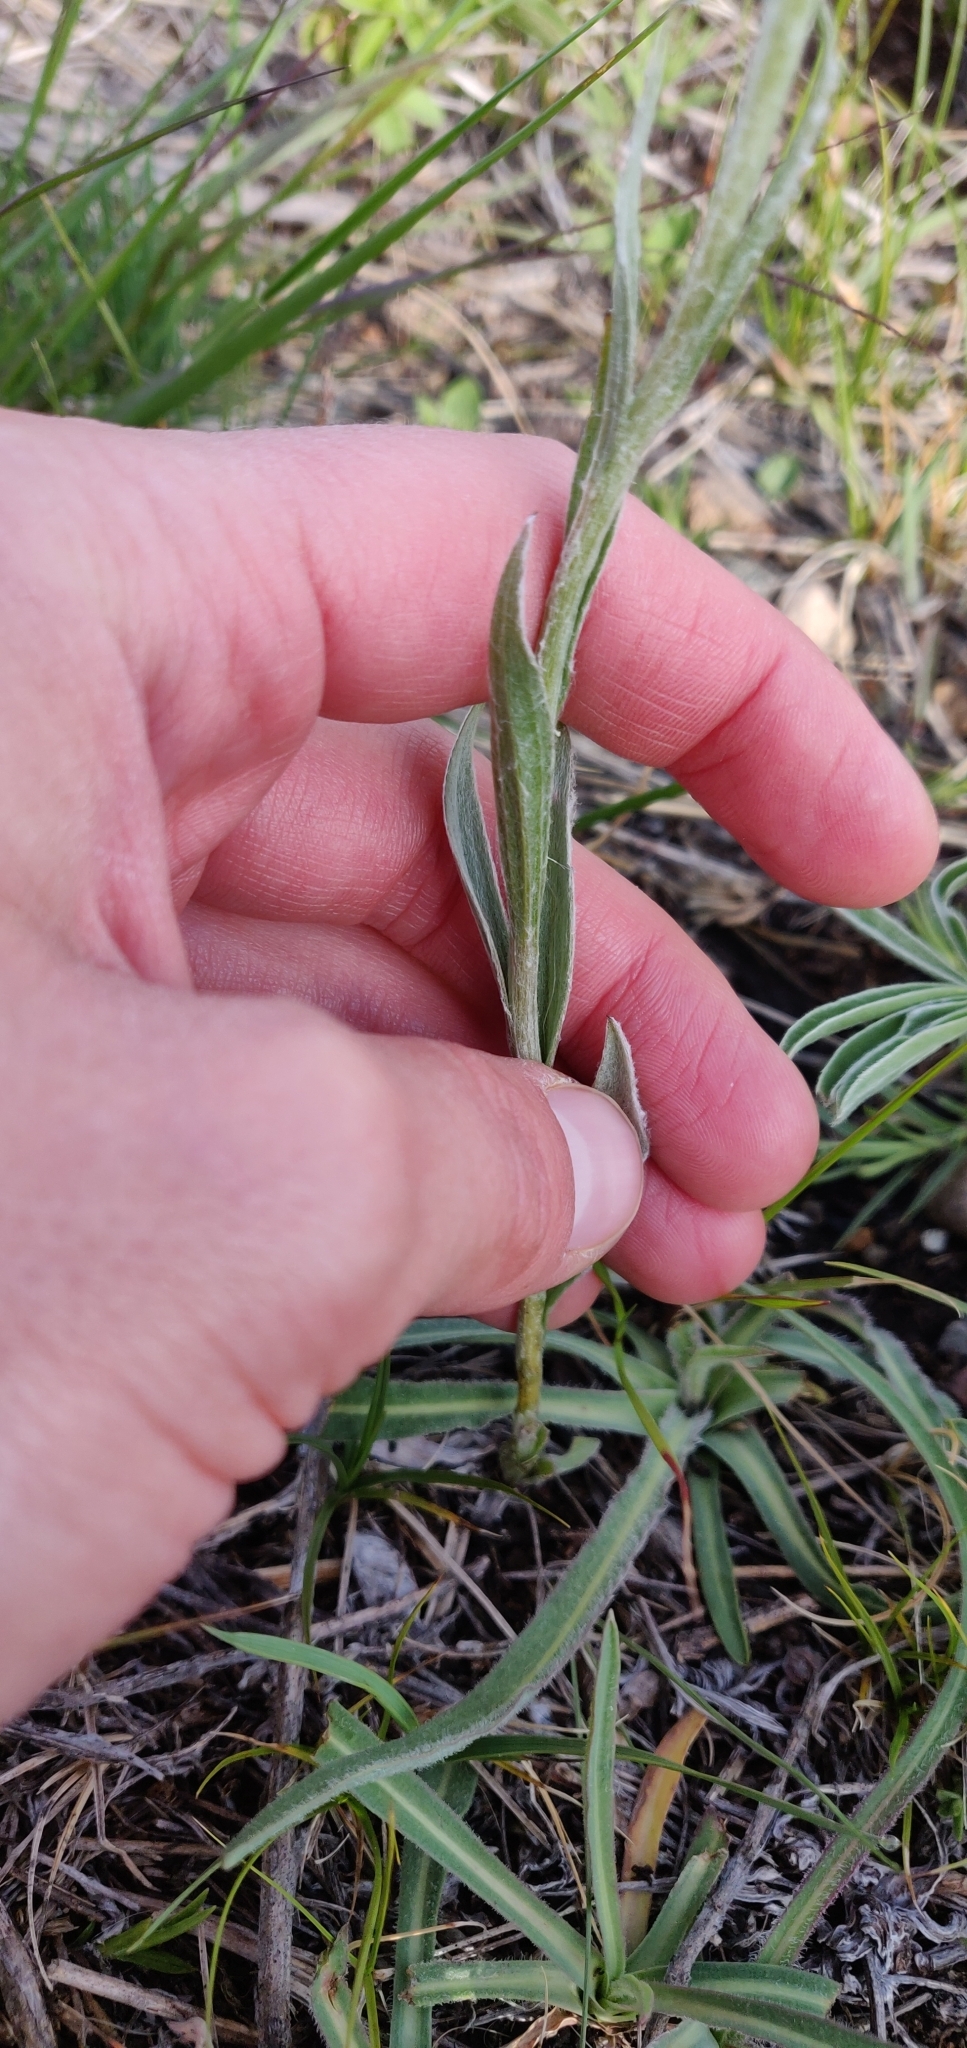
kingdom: Plantae
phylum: Tracheophyta
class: Magnoliopsida
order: Asterales
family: Asteraceae
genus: Antennaria
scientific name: Antennaria anaphaloides
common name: Tall pussytoes
